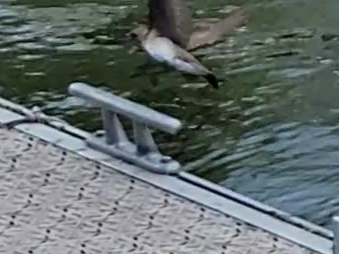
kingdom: Animalia
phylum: Chordata
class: Aves
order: Passeriformes
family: Hirundinidae
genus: Stelgidopteryx
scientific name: Stelgidopteryx serripennis
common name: Northern rough-winged swallow
